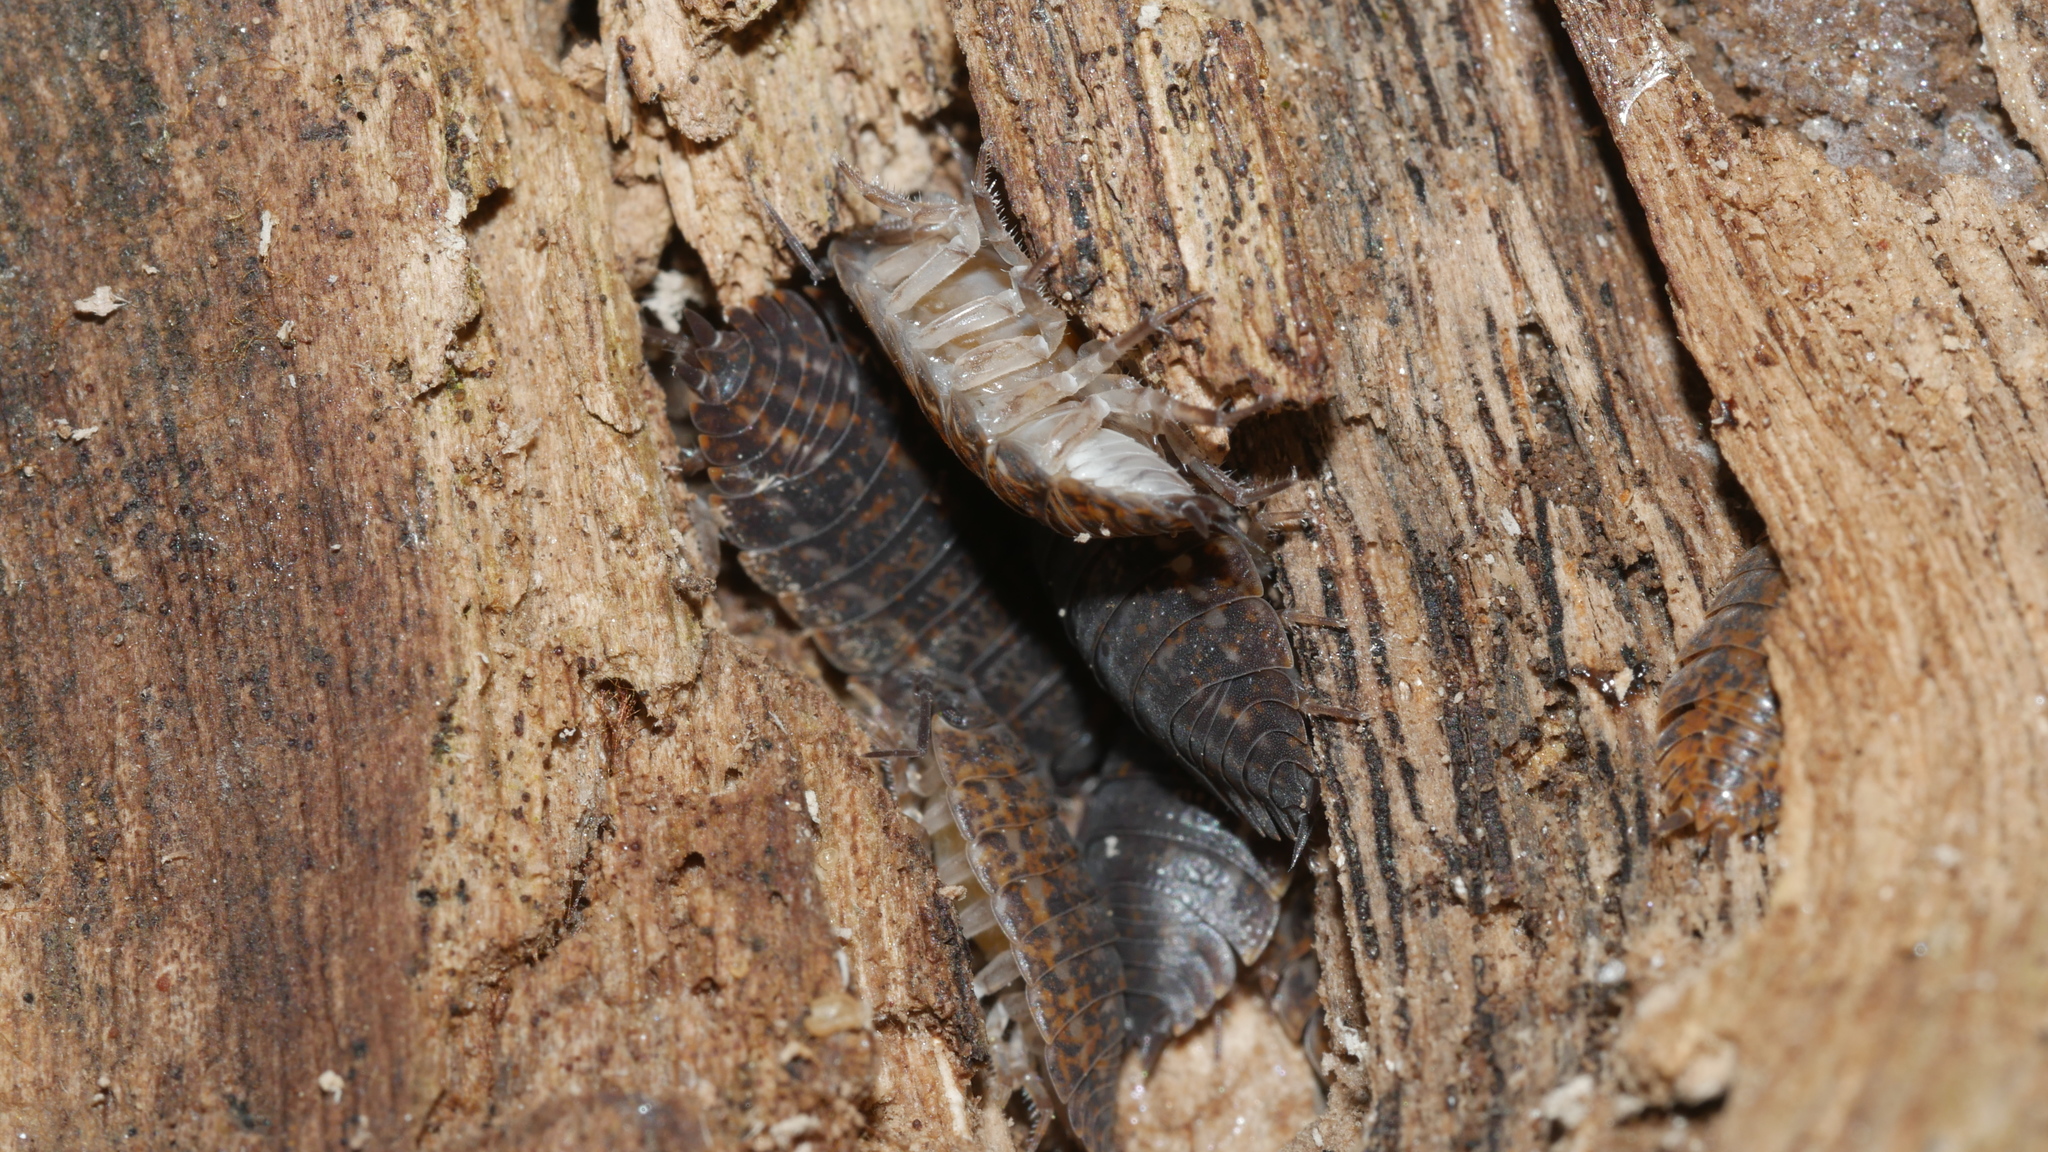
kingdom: Animalia
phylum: Arthropoda
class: Malacostraca
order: Isopoda
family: Trachelipodidae
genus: Trachelipus
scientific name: Trachelipus rathkii
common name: Isopod
